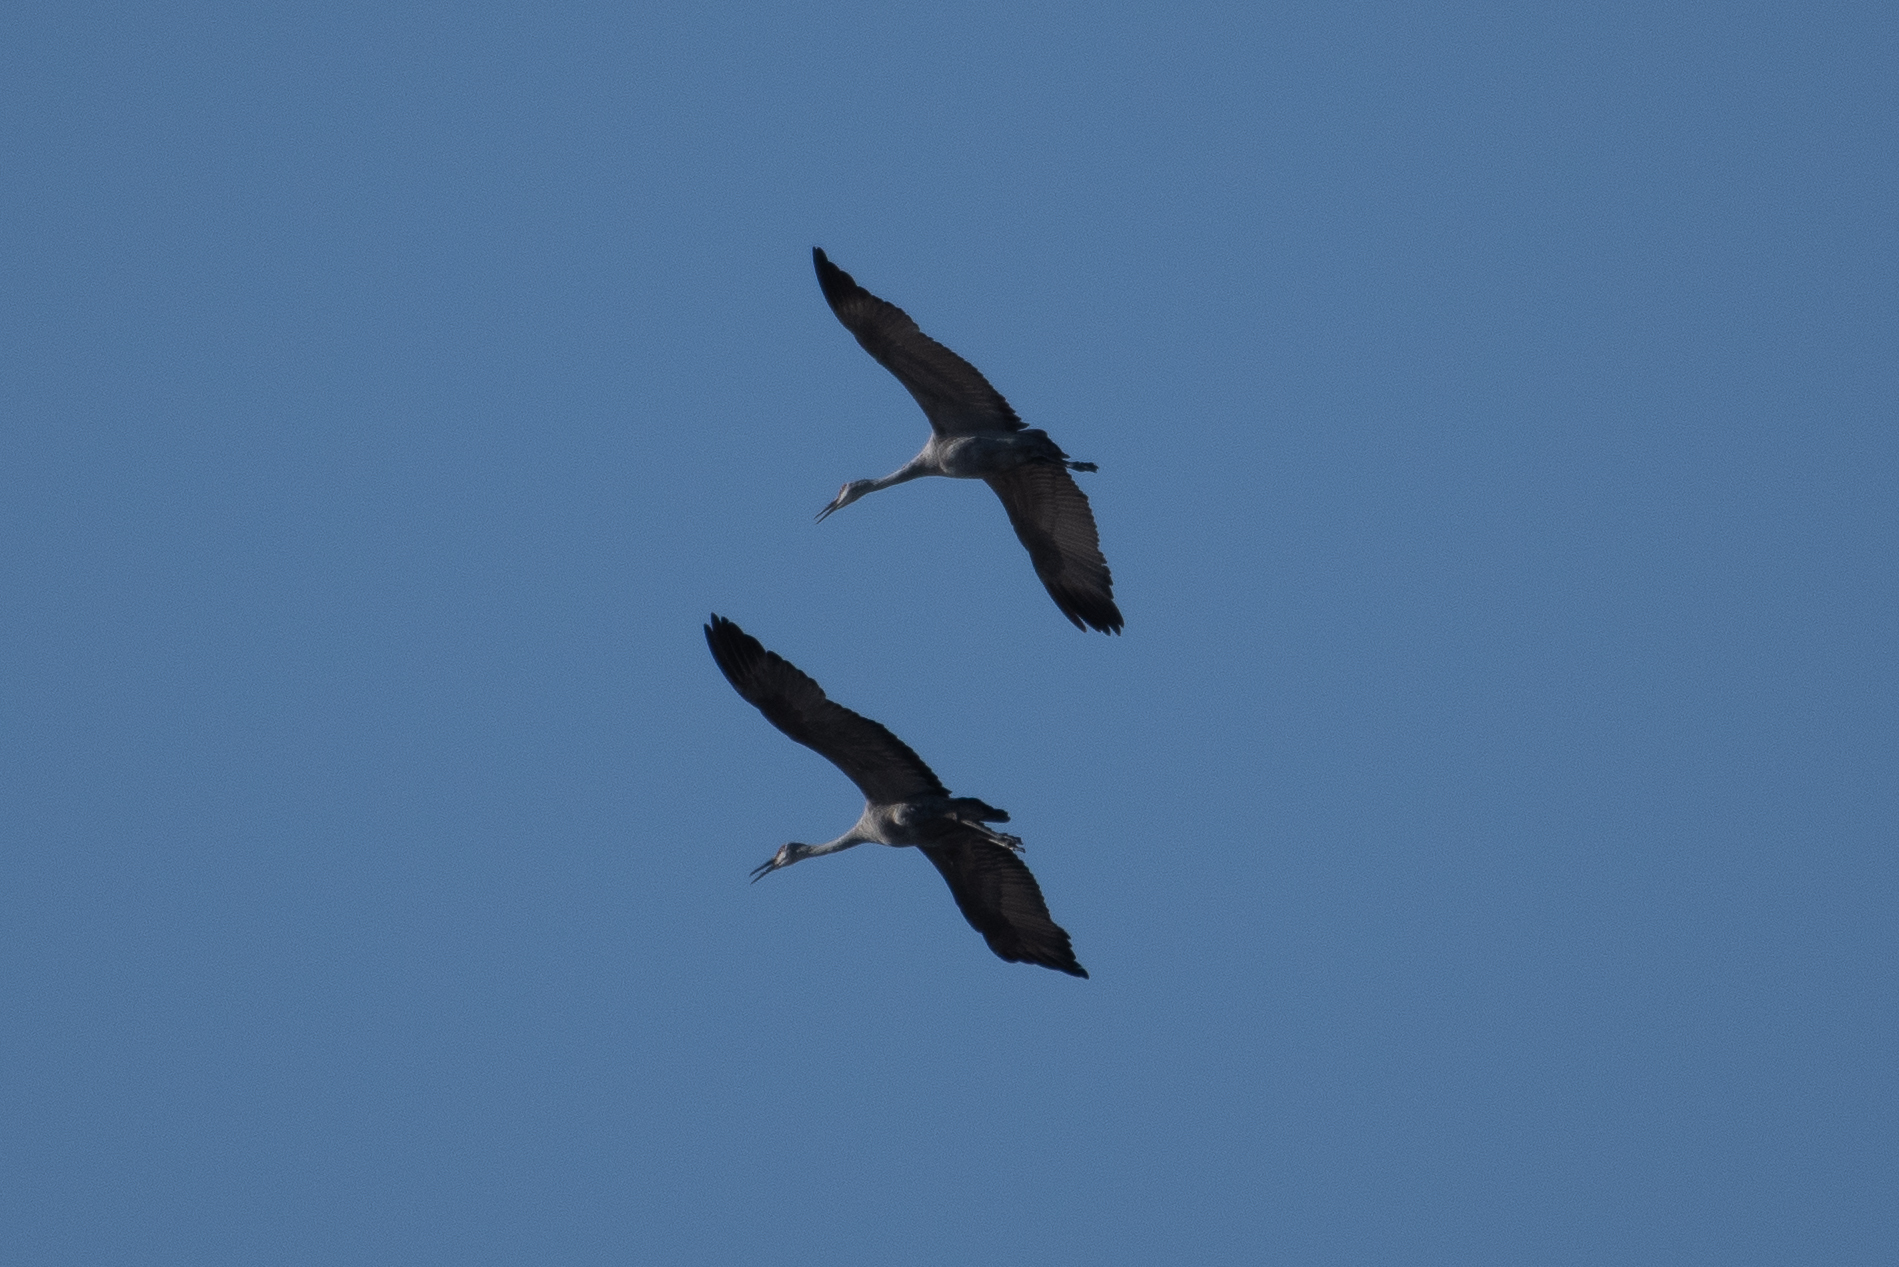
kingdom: Animalia
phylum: Chordata
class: Aves
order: Gruiformes
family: Gruidae
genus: Grus
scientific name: Grus canadensis
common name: Sandhill crane
